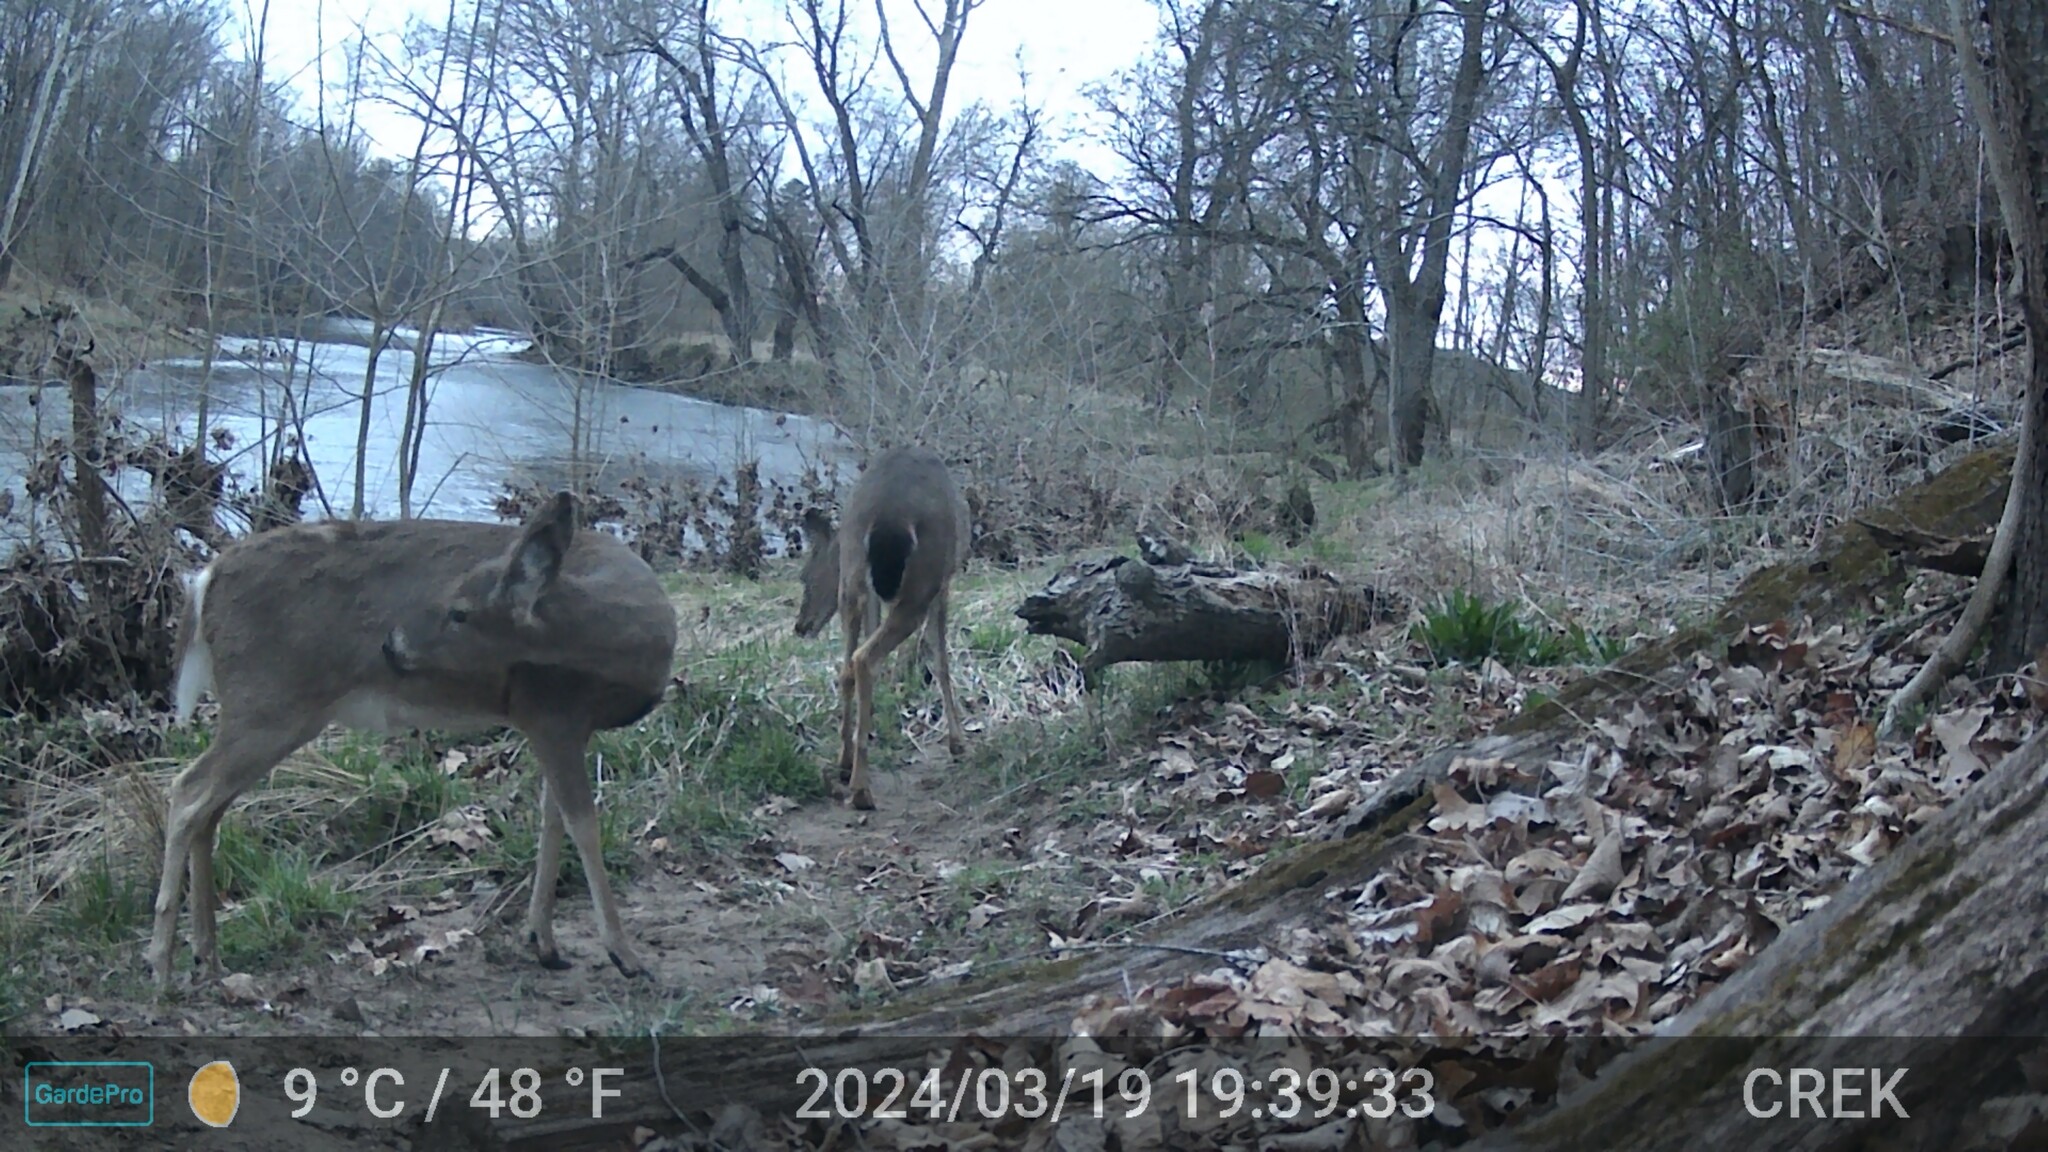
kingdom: Animalia
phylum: Chordata
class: Mammalia
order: Artiodactyla
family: Cervidae
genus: Odocoileus
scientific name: Odocoileus virginianus
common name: White-tailed deer
